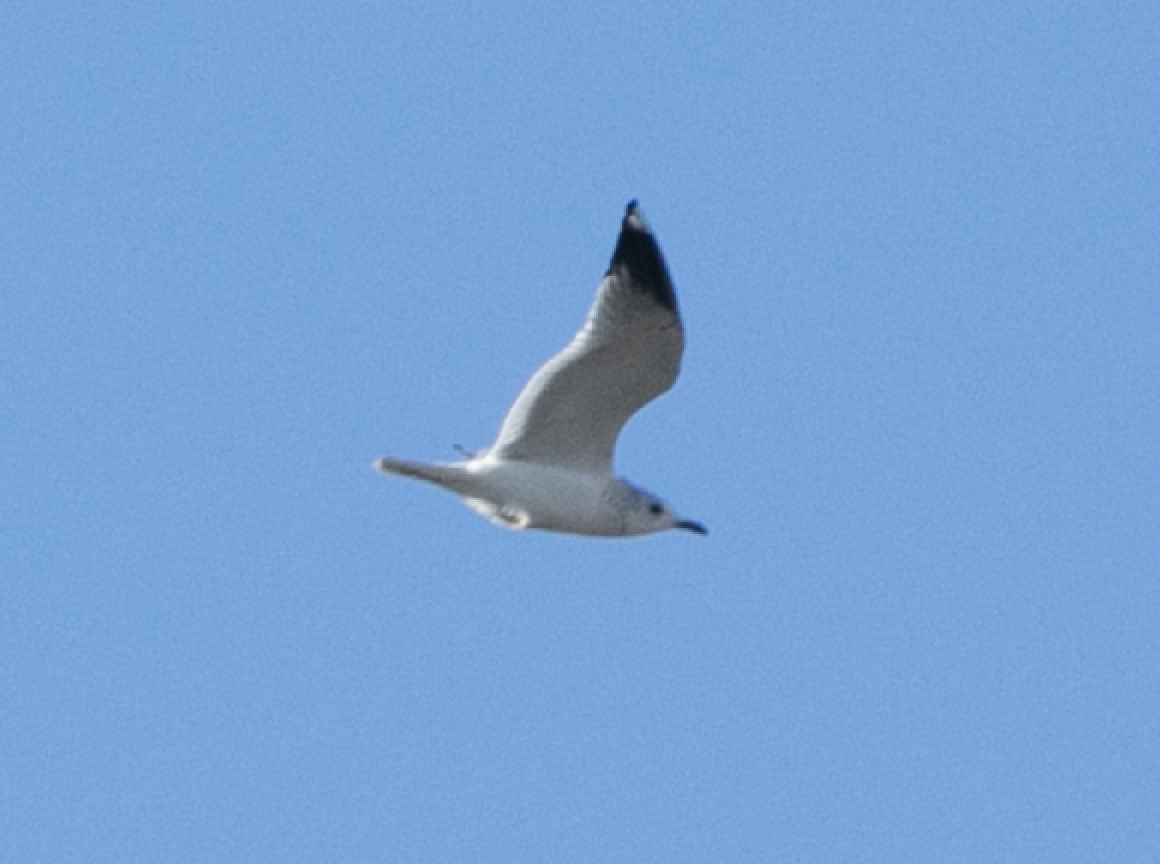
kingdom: Animalia
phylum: Chordata
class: Aves
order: Charadriiformes
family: Laridae
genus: Larus
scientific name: Larus canus
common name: Mew gull
